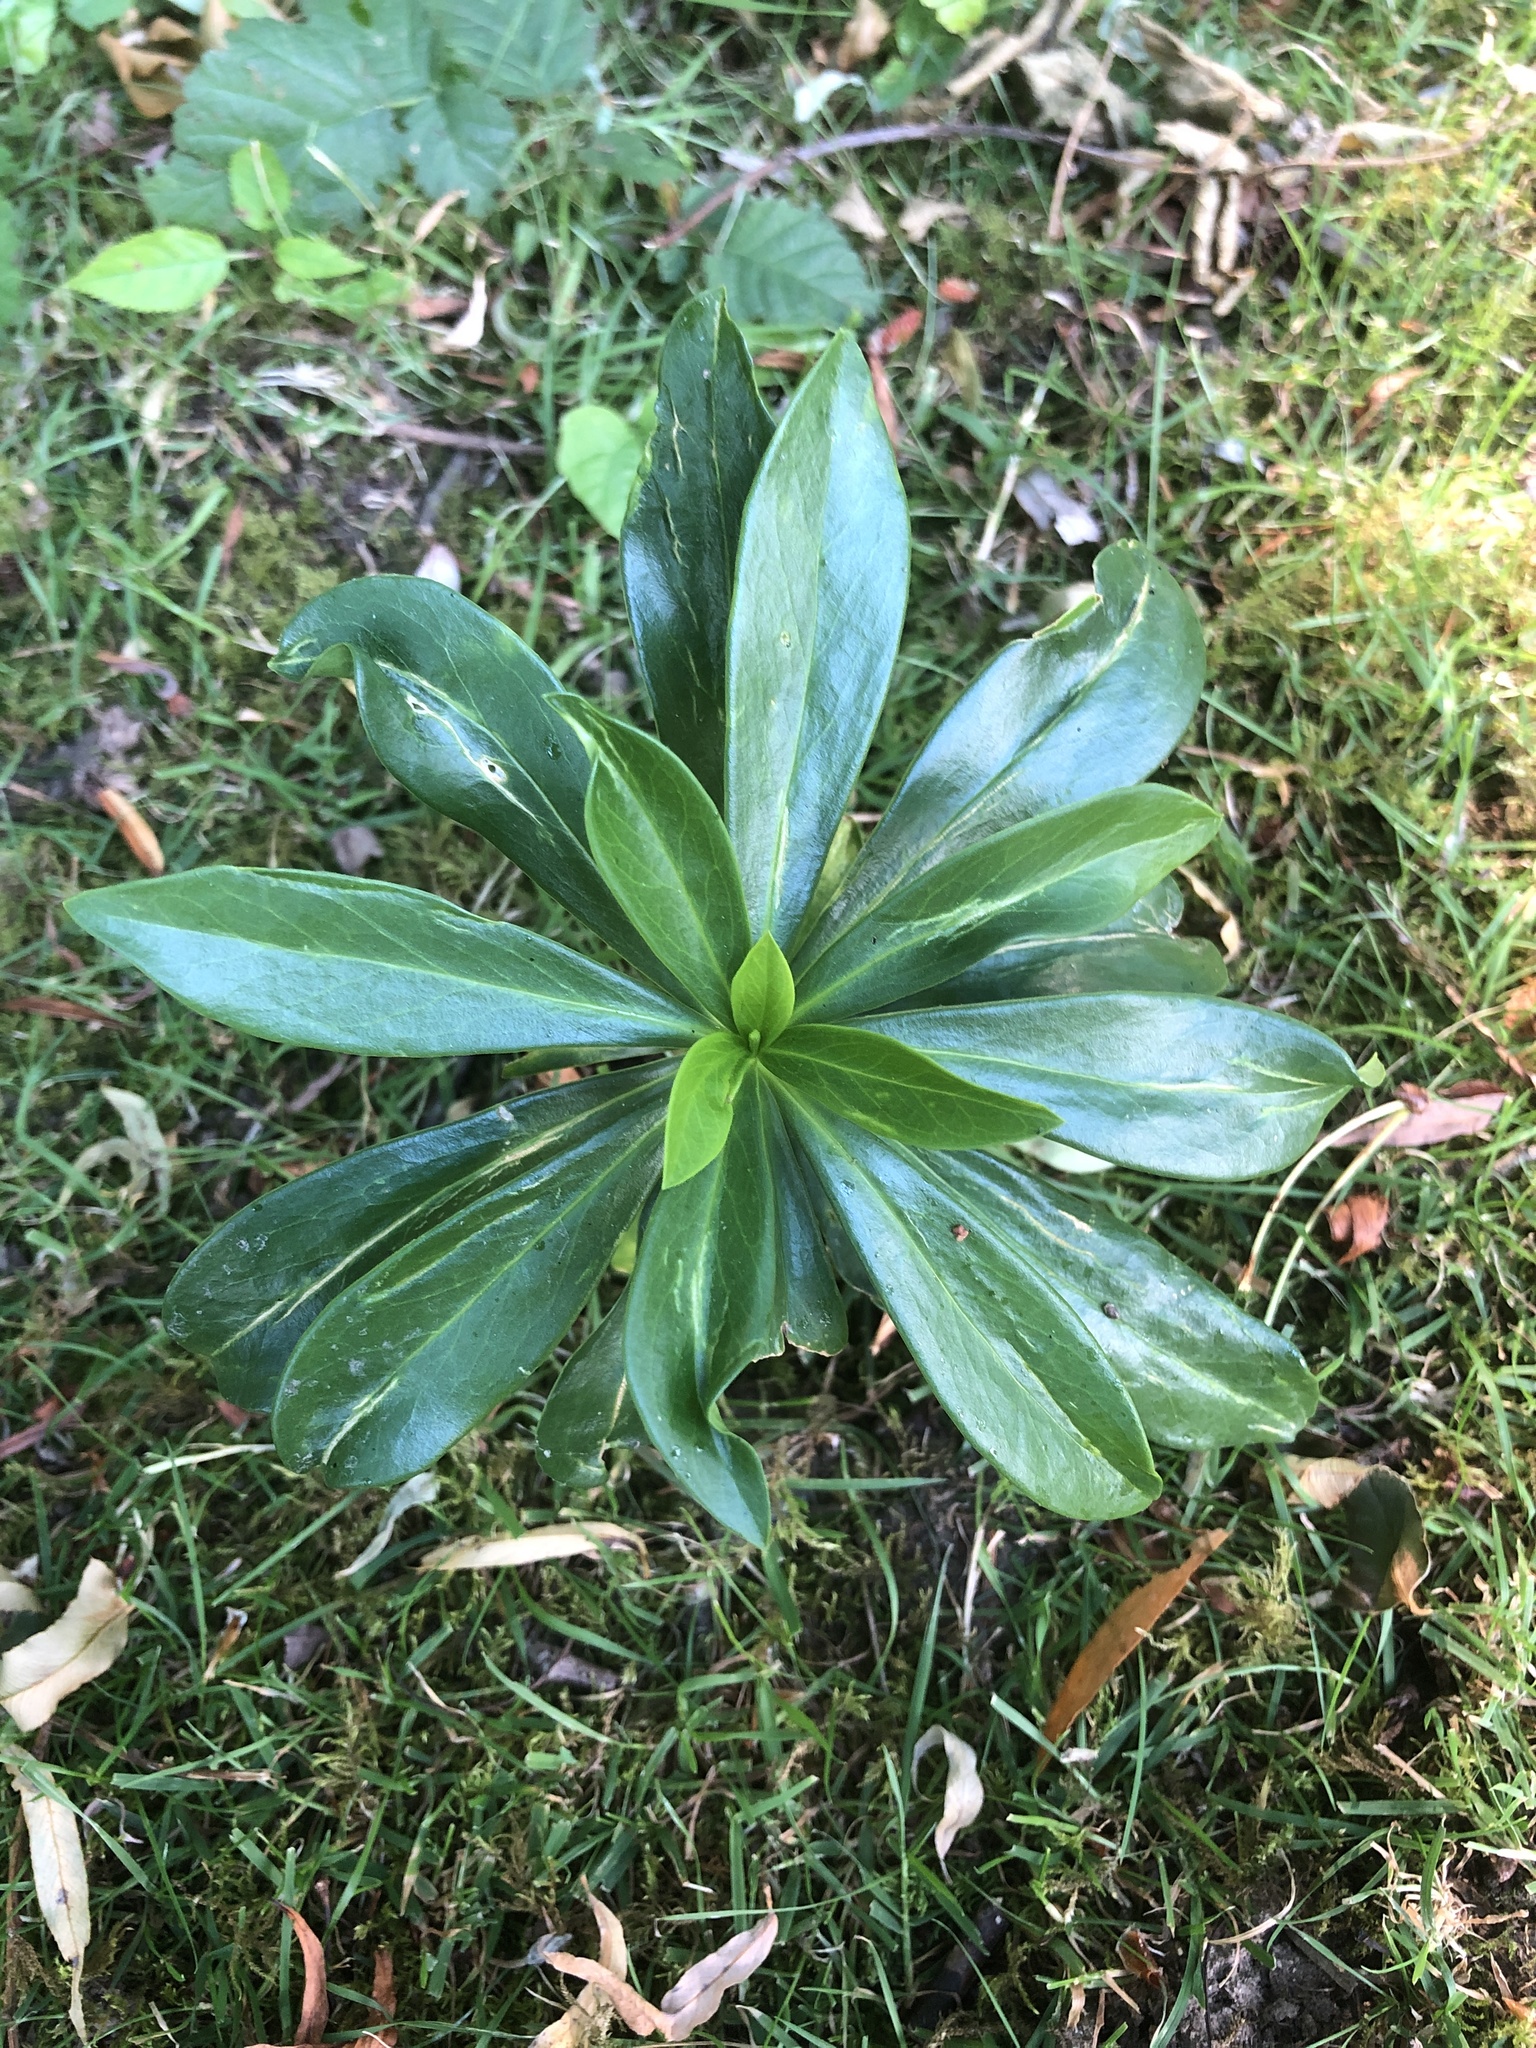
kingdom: Plantae
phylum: Tracheophyta
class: Magnoliopsida
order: Malvales
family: Thymelaeaceae
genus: Daphne
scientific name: Daphne laureola
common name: Spurge-laurel
